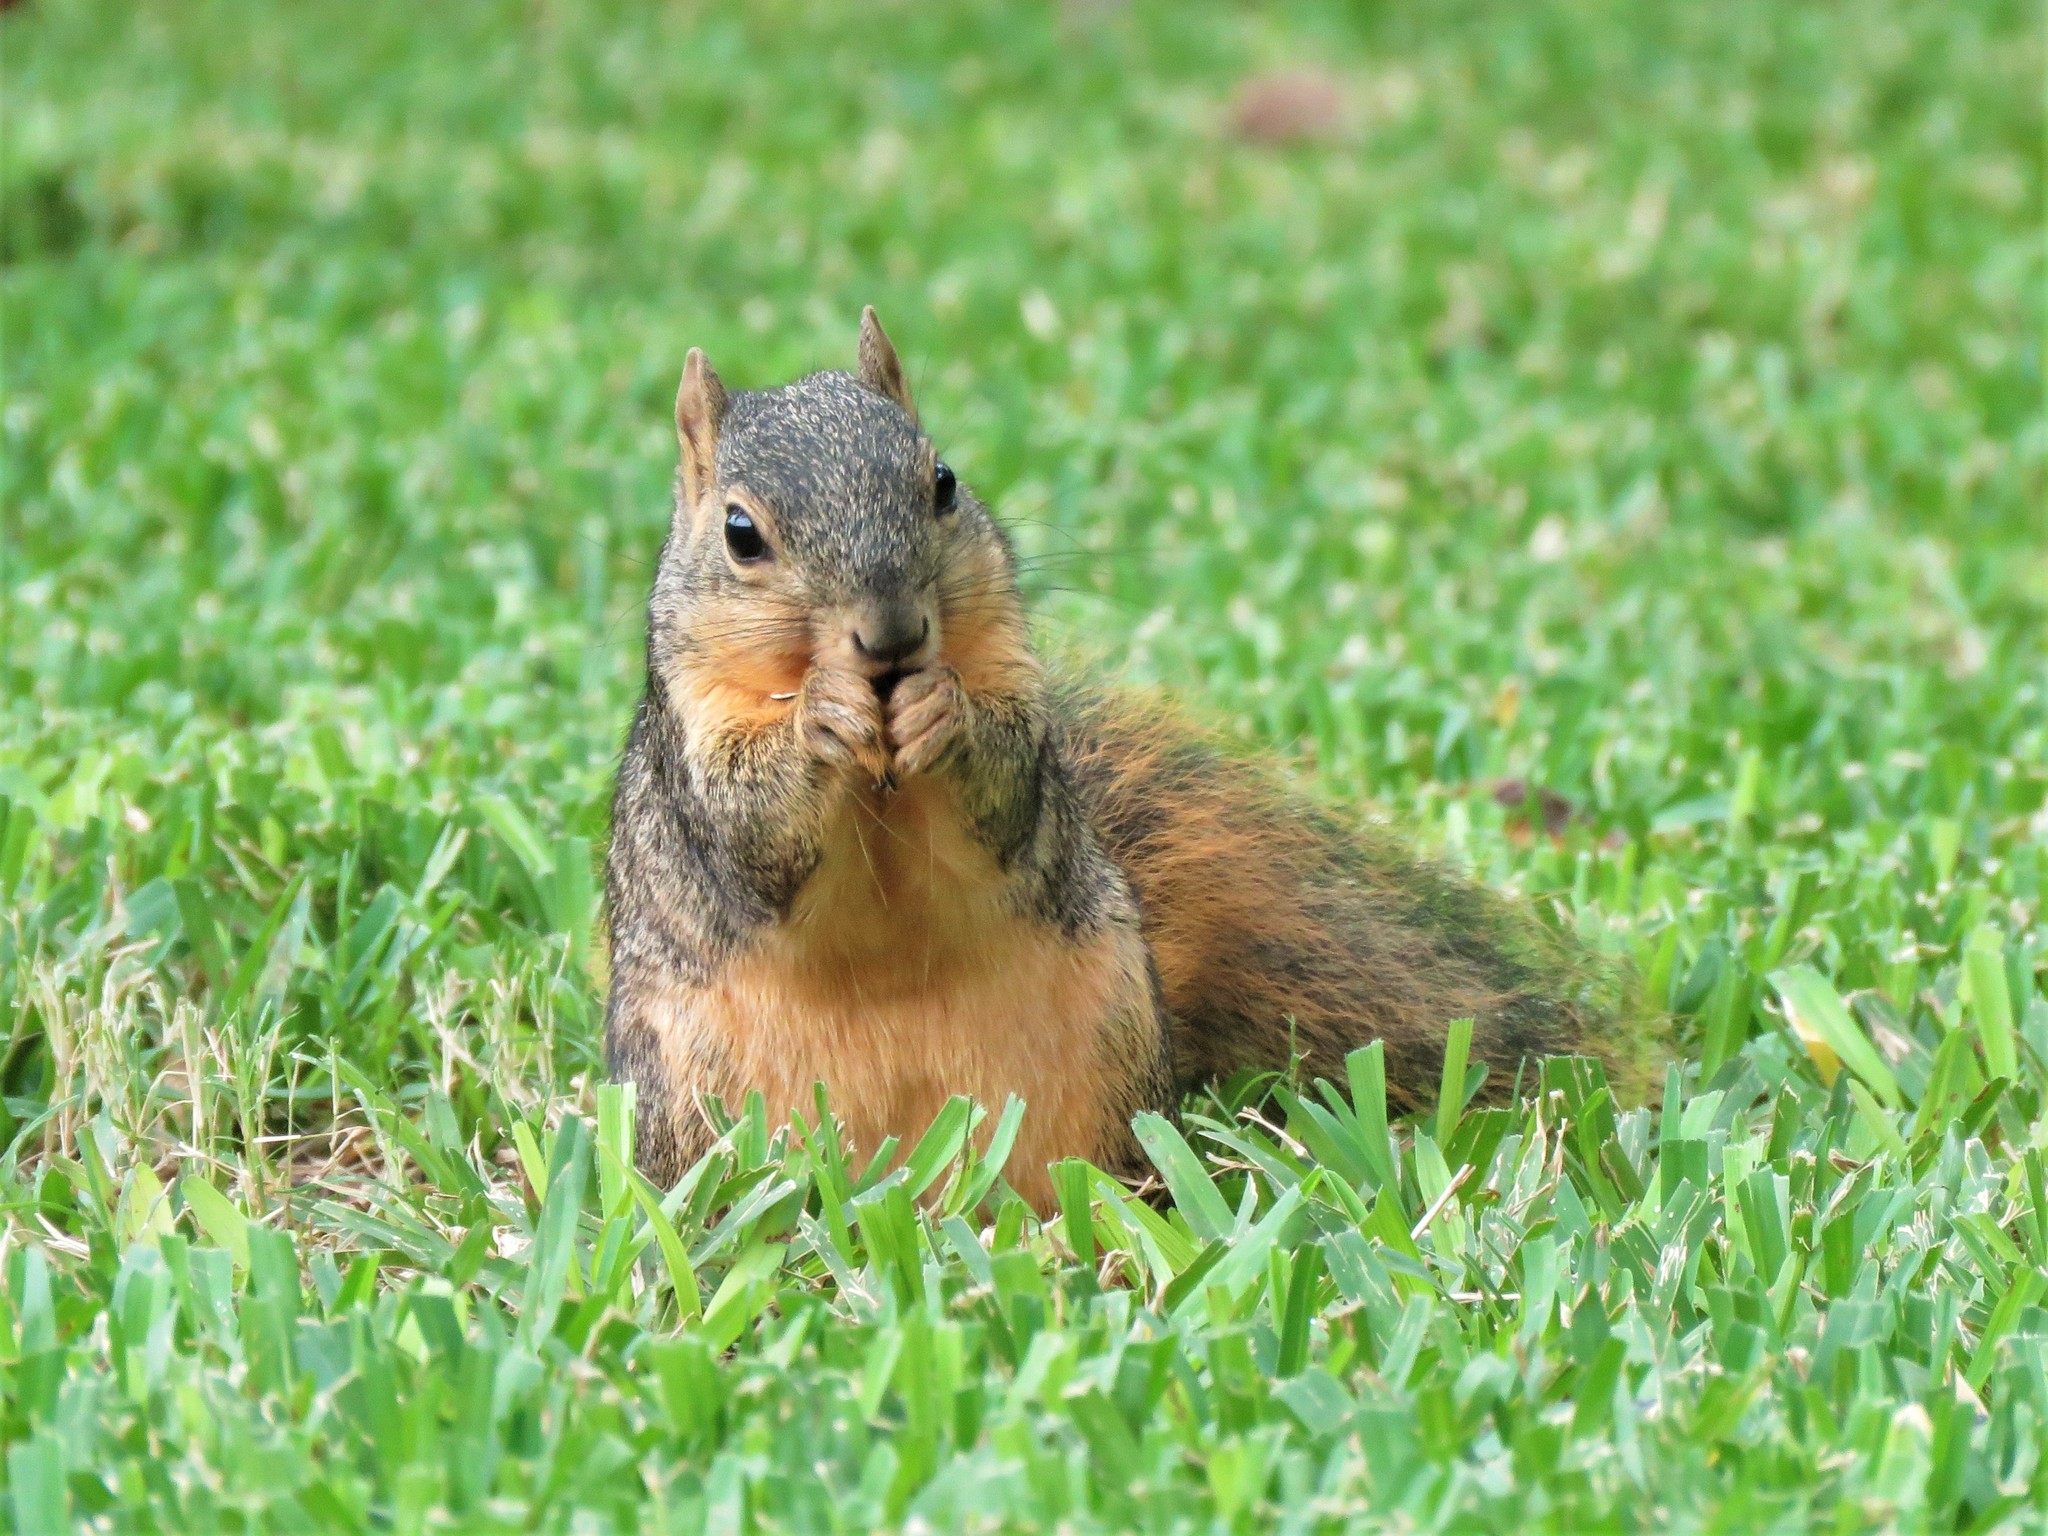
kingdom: Animalia
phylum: Chordata
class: Mammalia
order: Rodentia
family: Sciuridae
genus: Sciurus
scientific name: Sciurus niger
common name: Fox squirrel
